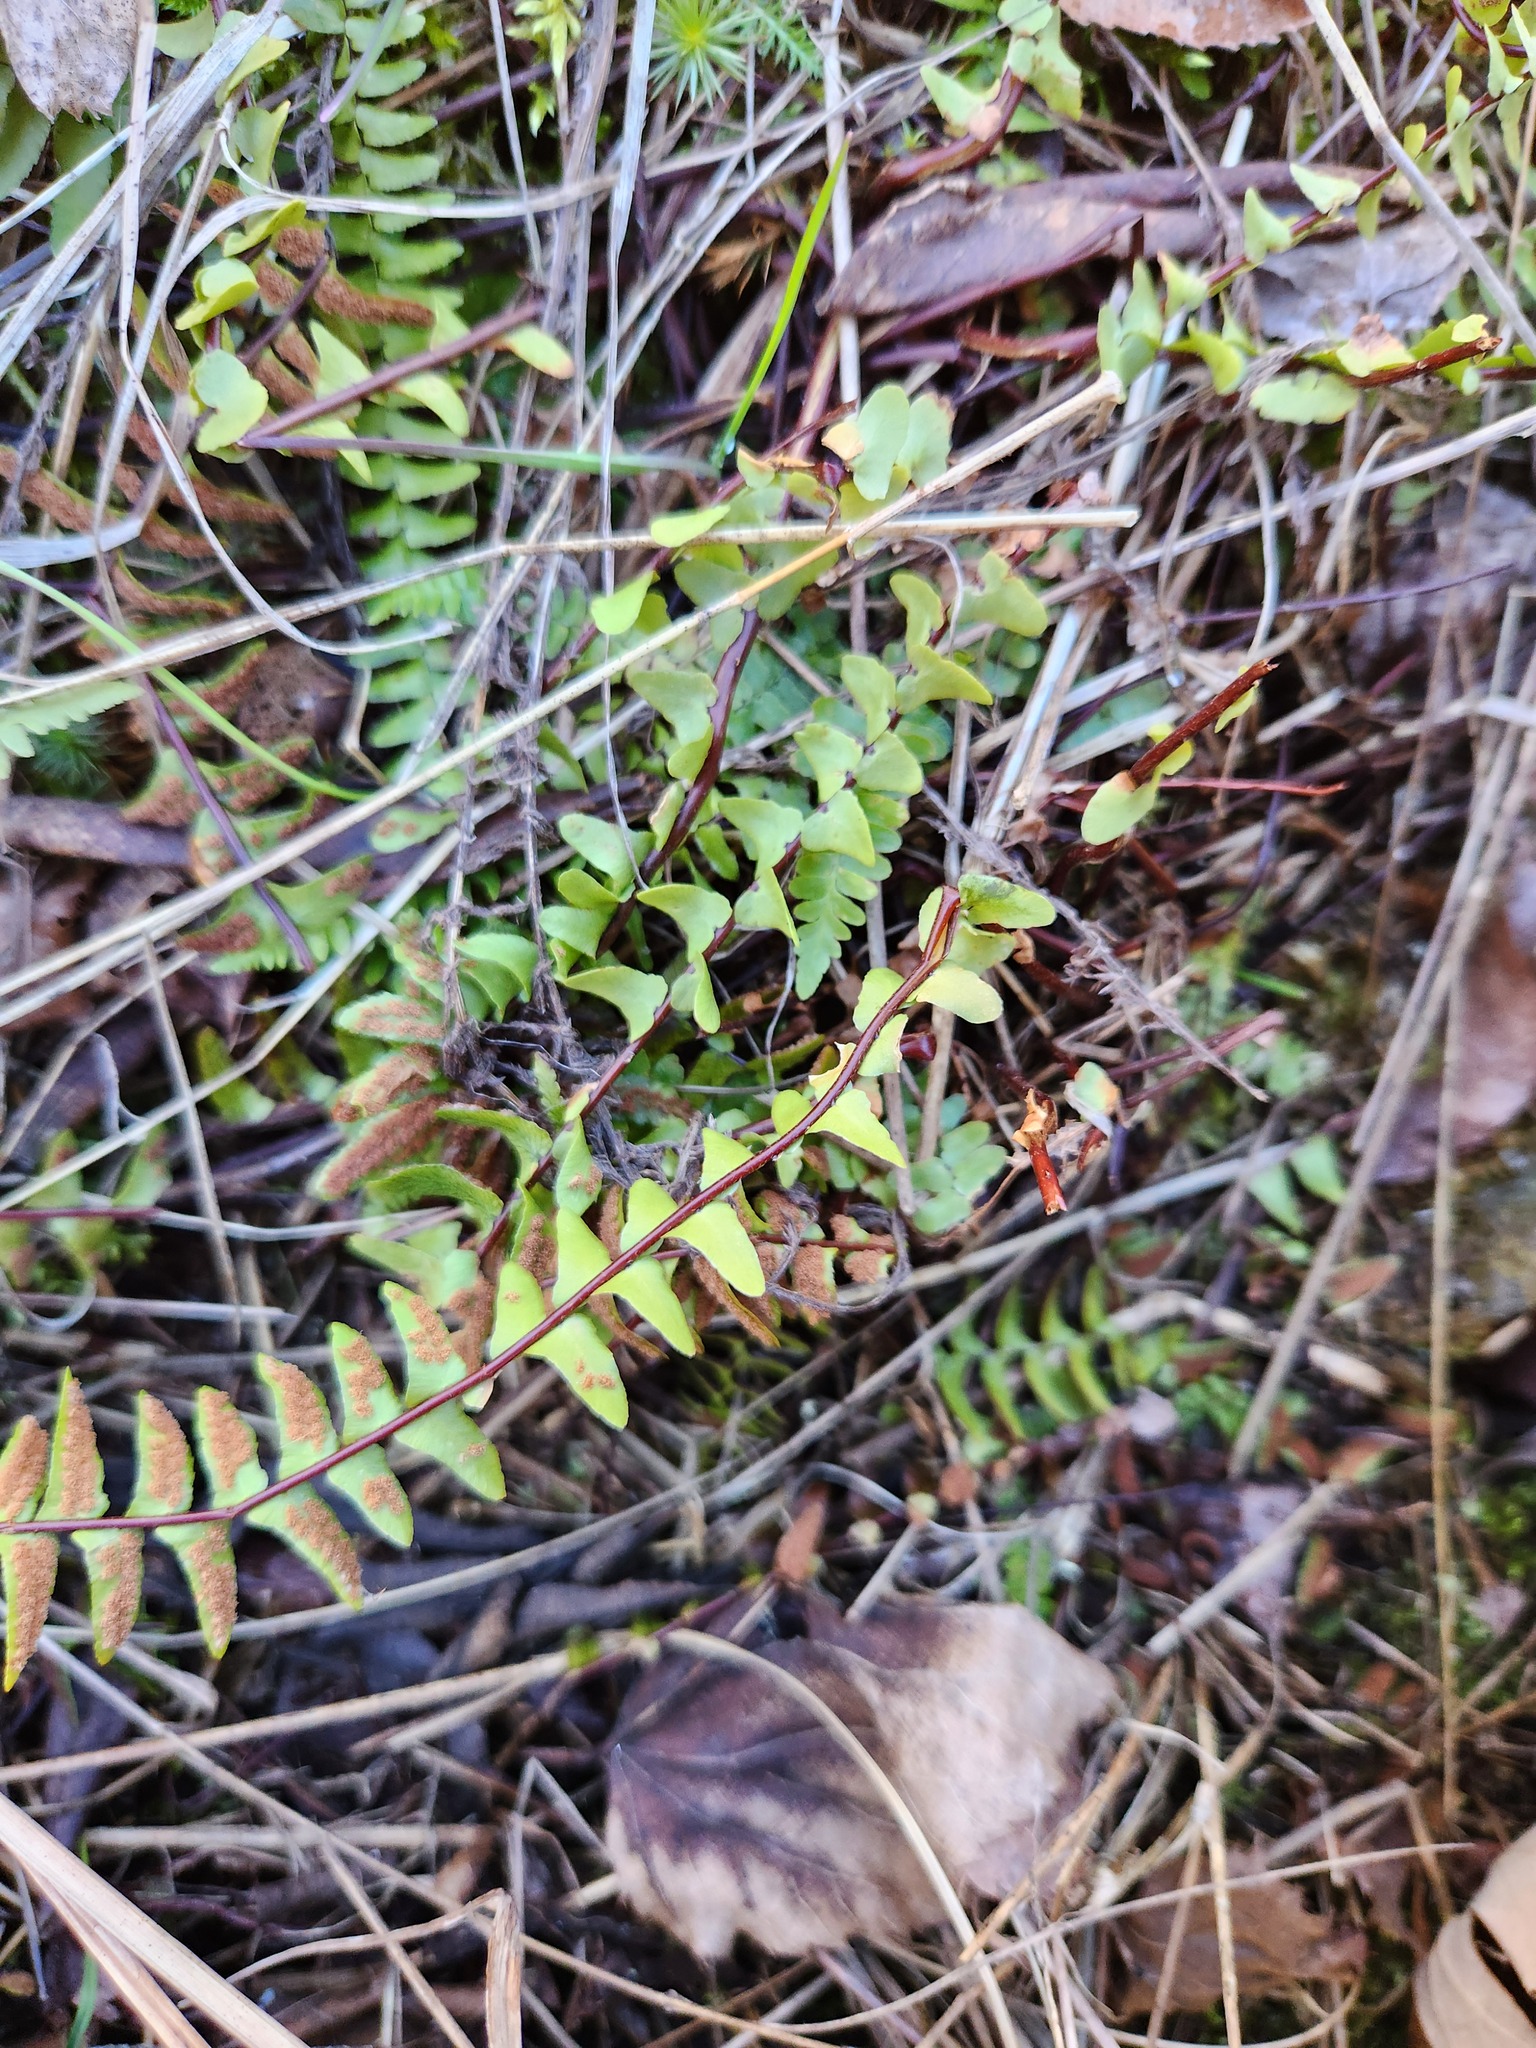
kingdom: Plantae
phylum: Tracheophyta
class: Polypodiopsida
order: Polypodiales
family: Aspleniaceae
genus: Asplenium
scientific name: Asplenium platyneuron
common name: Ebony spleenwort
